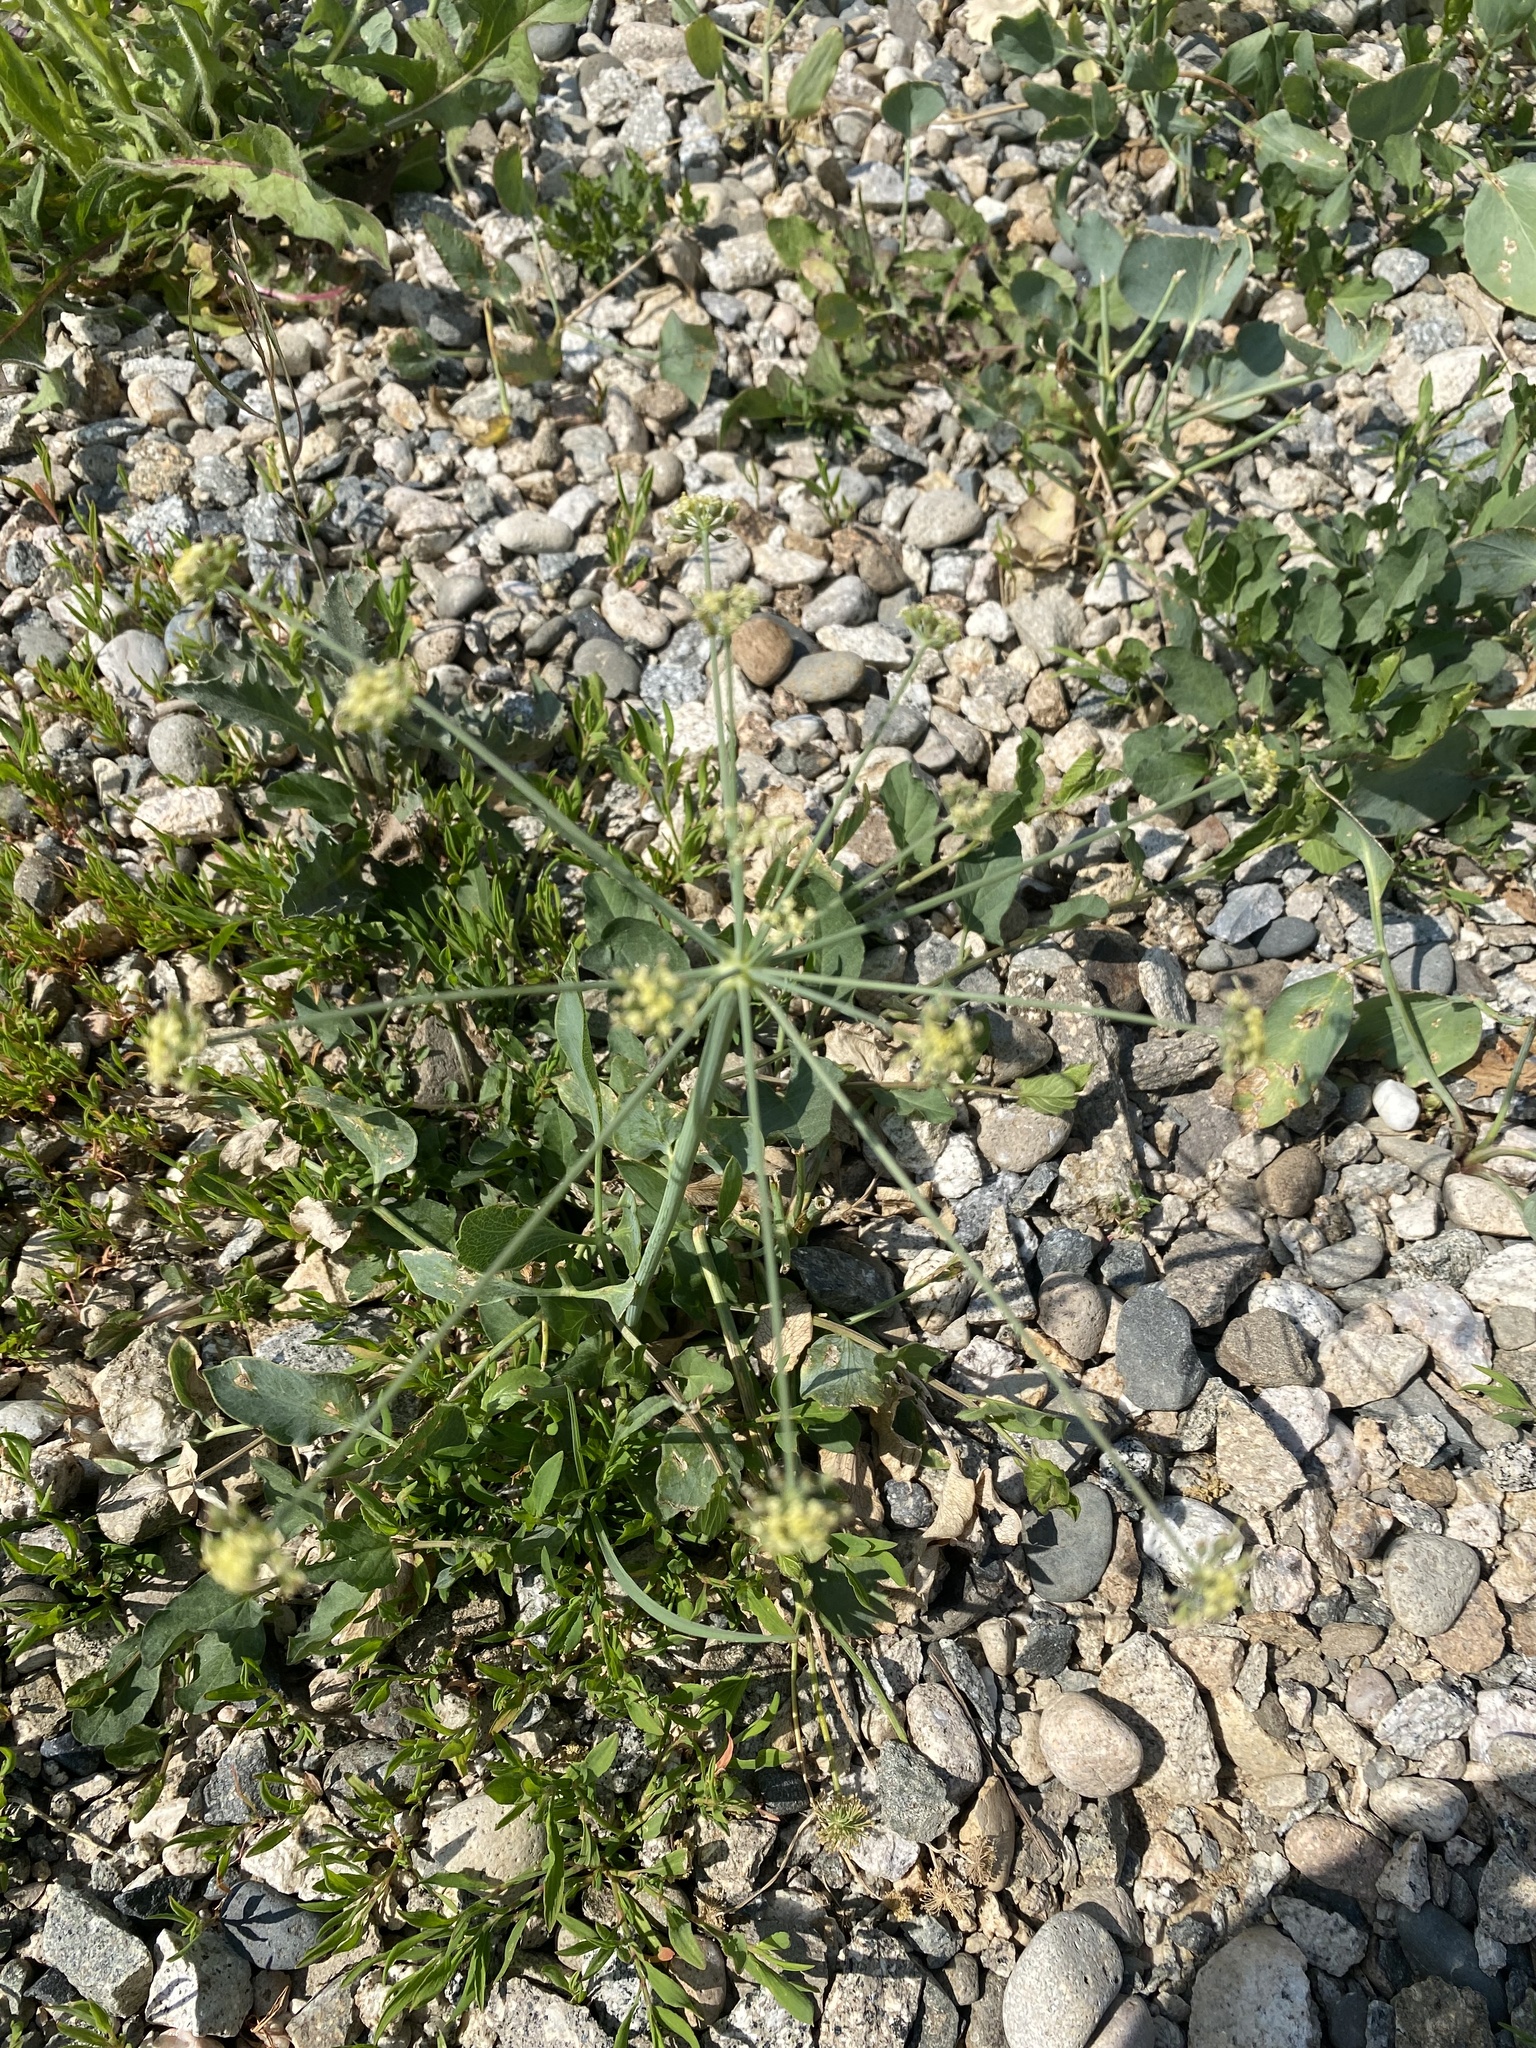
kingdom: Plantae
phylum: Tracheophyta
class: Magnoliopsida
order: Apiales
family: Apiaceae
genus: Lomatium
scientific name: Lomatium nudicaule
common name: Pestle lomatium
